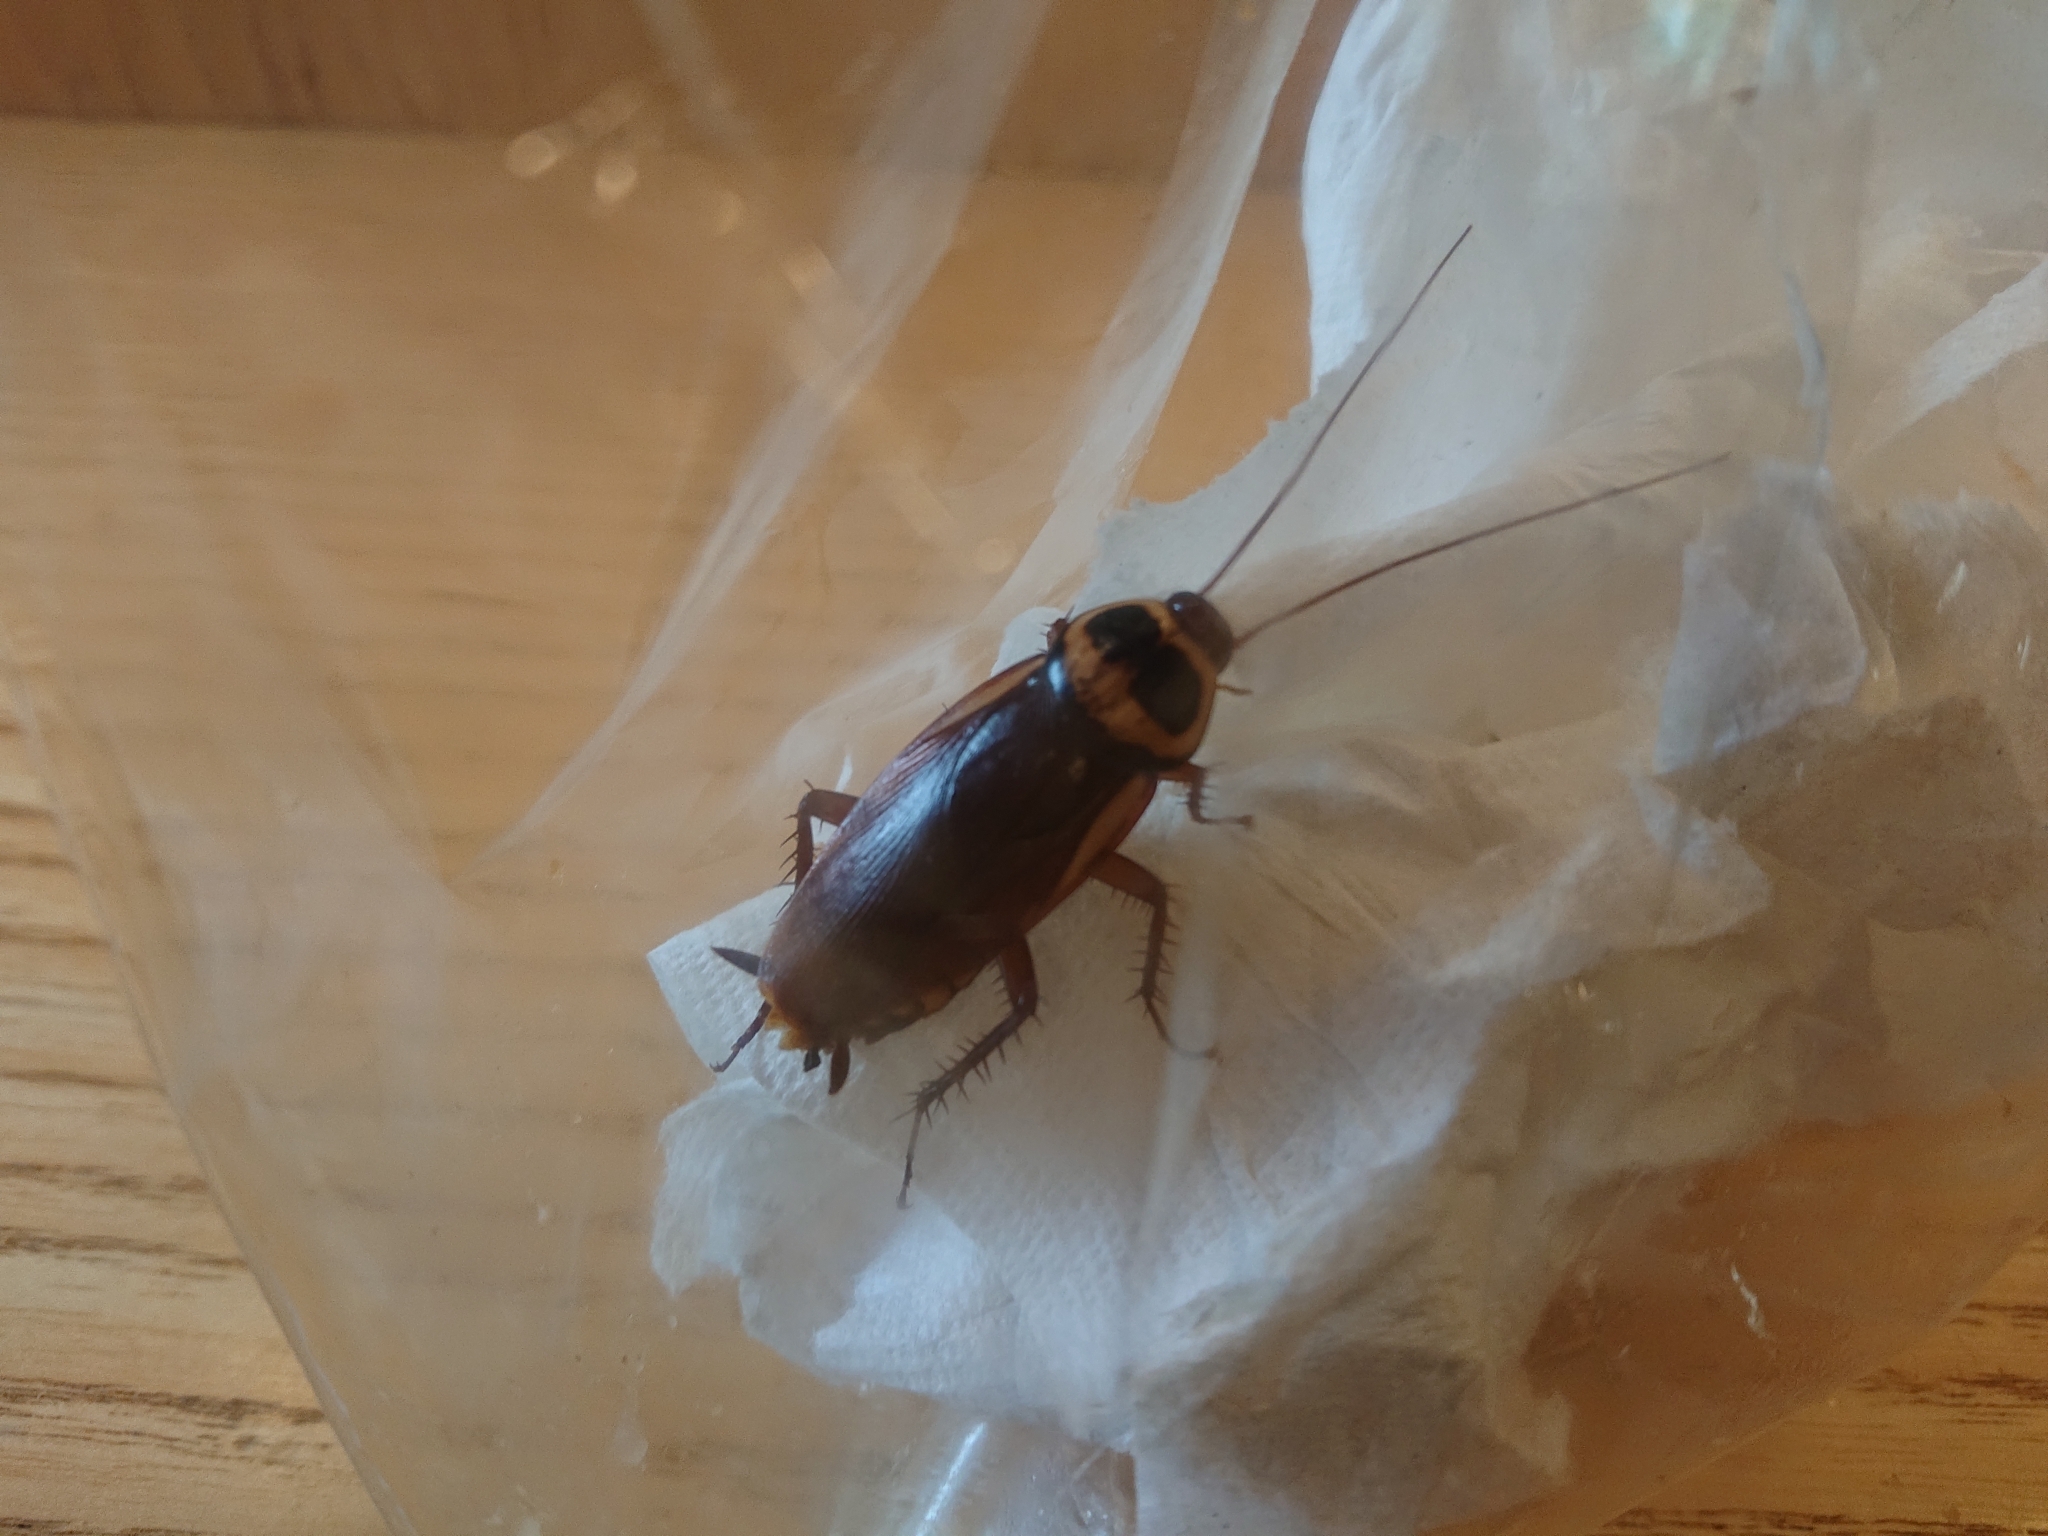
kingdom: Animalia
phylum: Arthropoda
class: Insecta
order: Blattodea
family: Blattidae
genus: Periplaneta
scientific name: Periplaneta australasiae
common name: Australian cockroach
